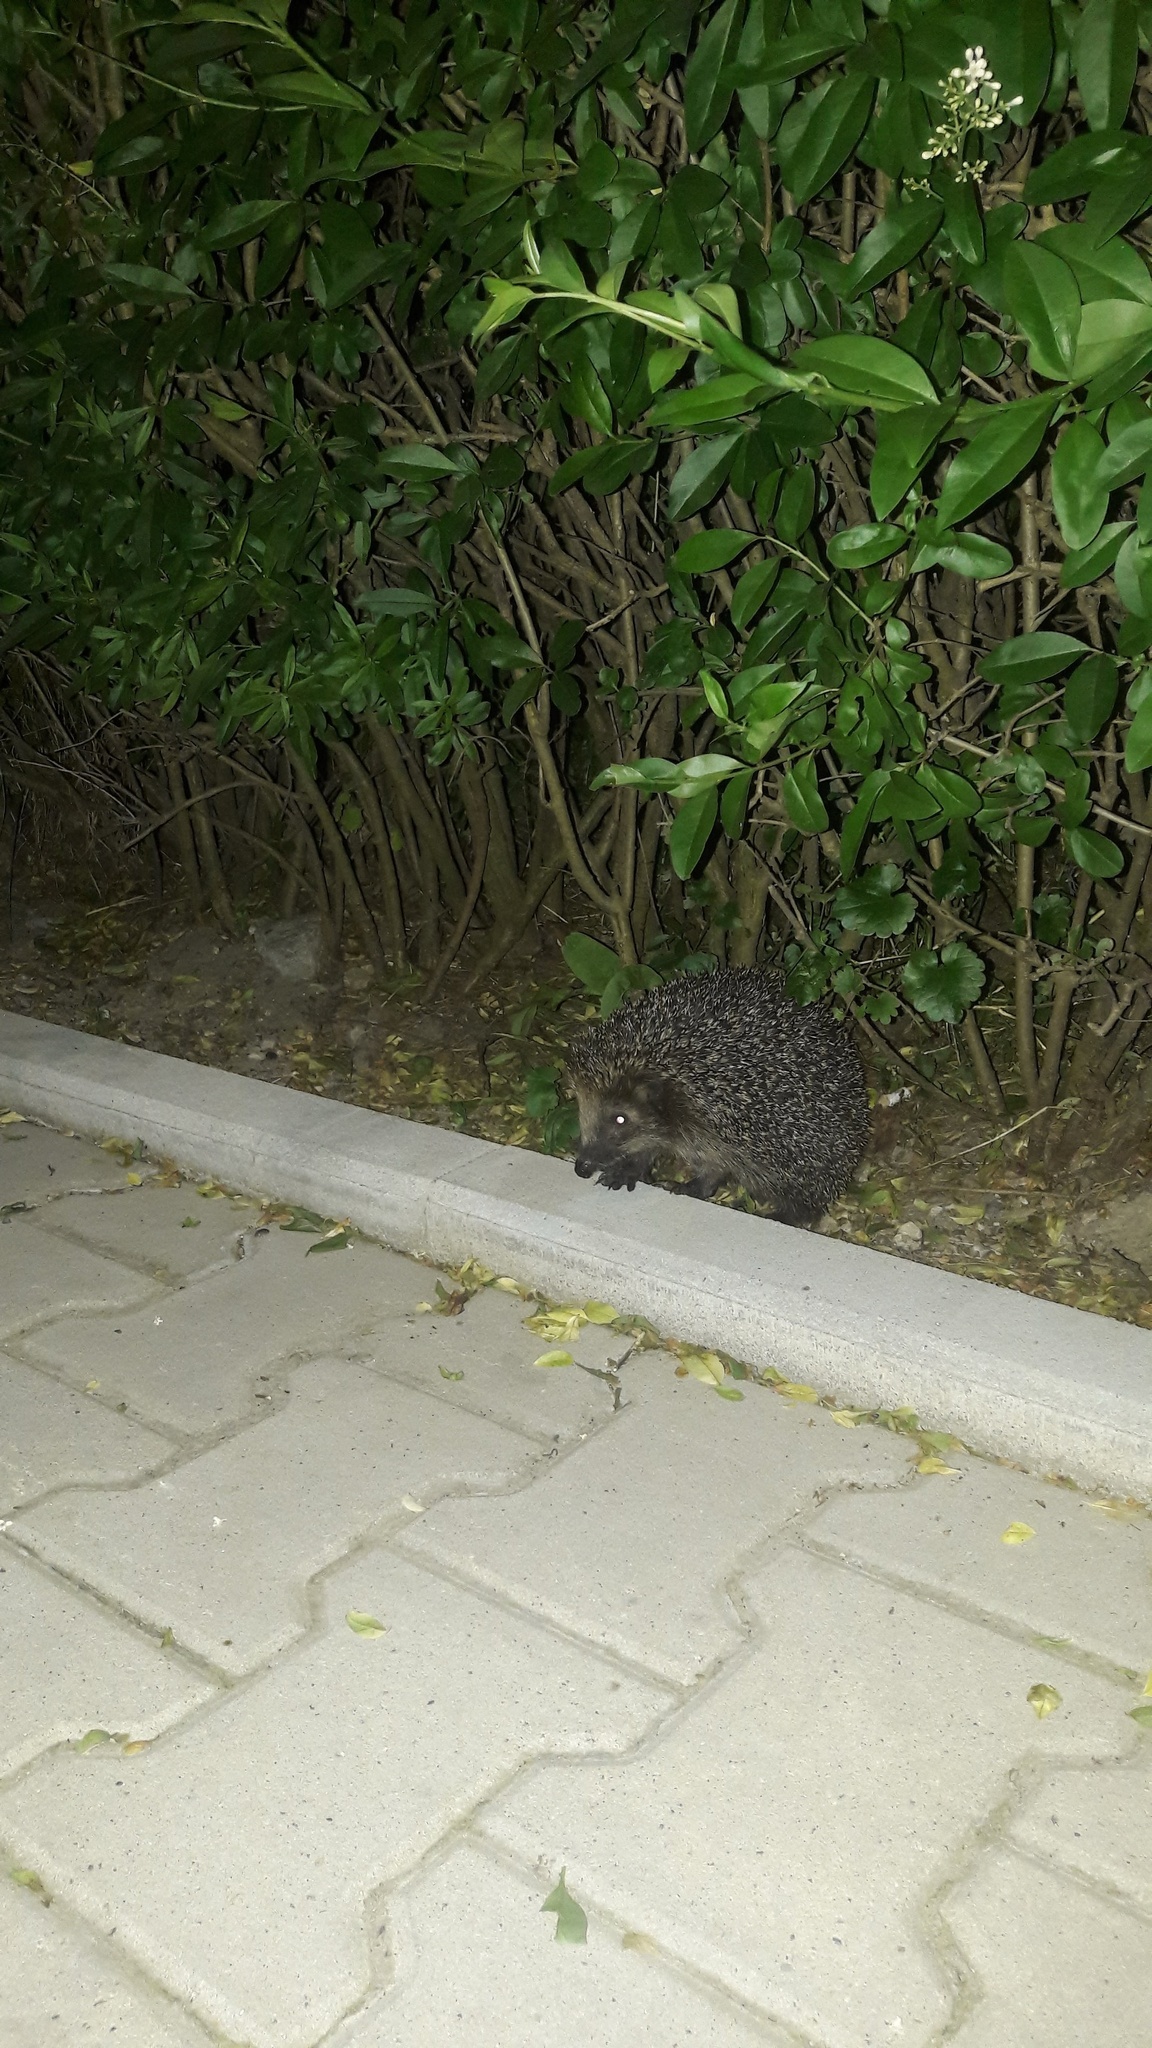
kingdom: Animalia
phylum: Chordata
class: Mammalia
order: Erinaceomorpha
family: Erinaceidae
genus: Erinaceus
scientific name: Erinaceus europaeus
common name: West european hedgehog
